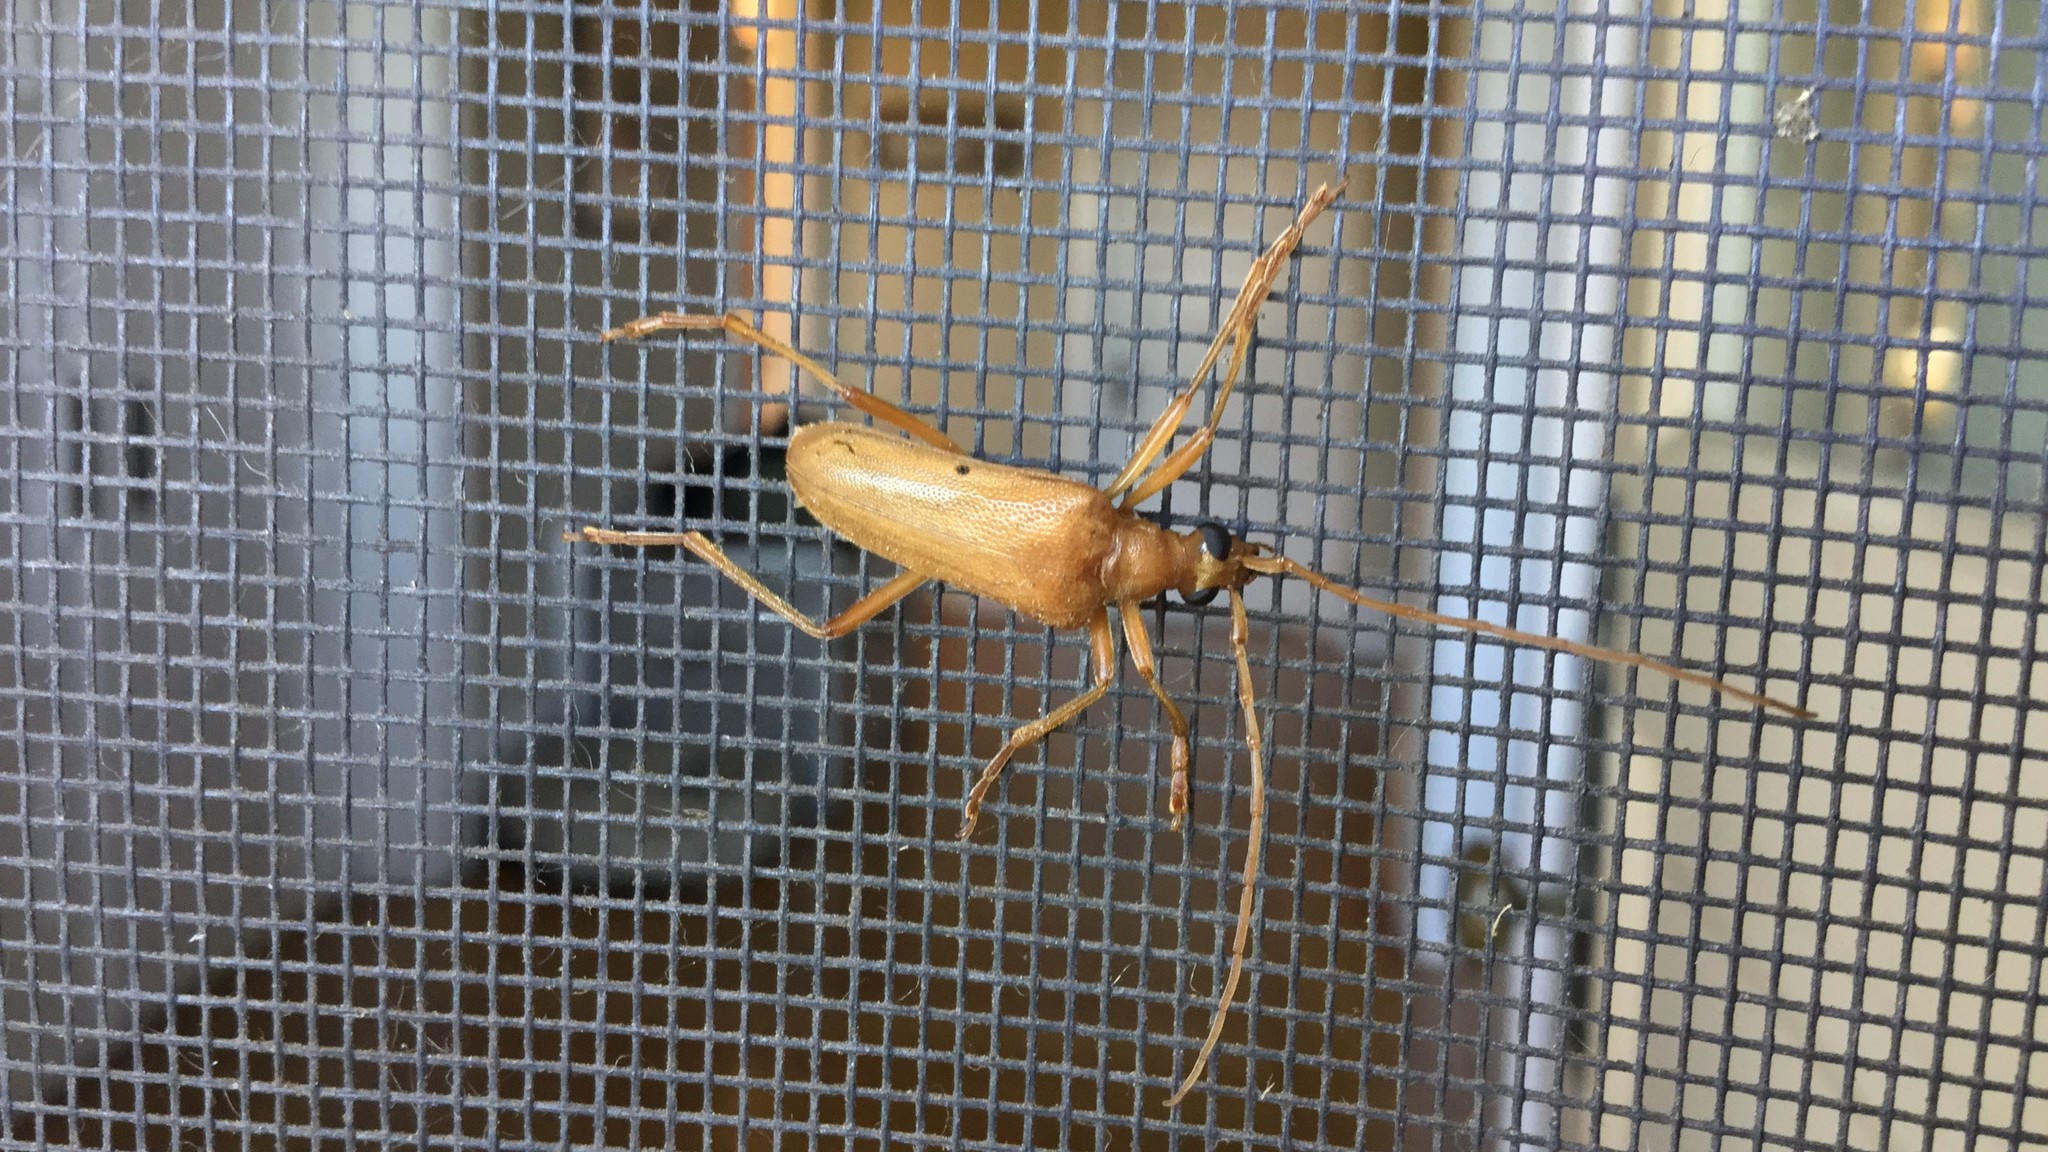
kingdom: Animalia
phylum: Arthropoda
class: Insecta
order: Coleoptera
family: Cerambycidae
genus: Centrodera
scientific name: Centrodera spurca
